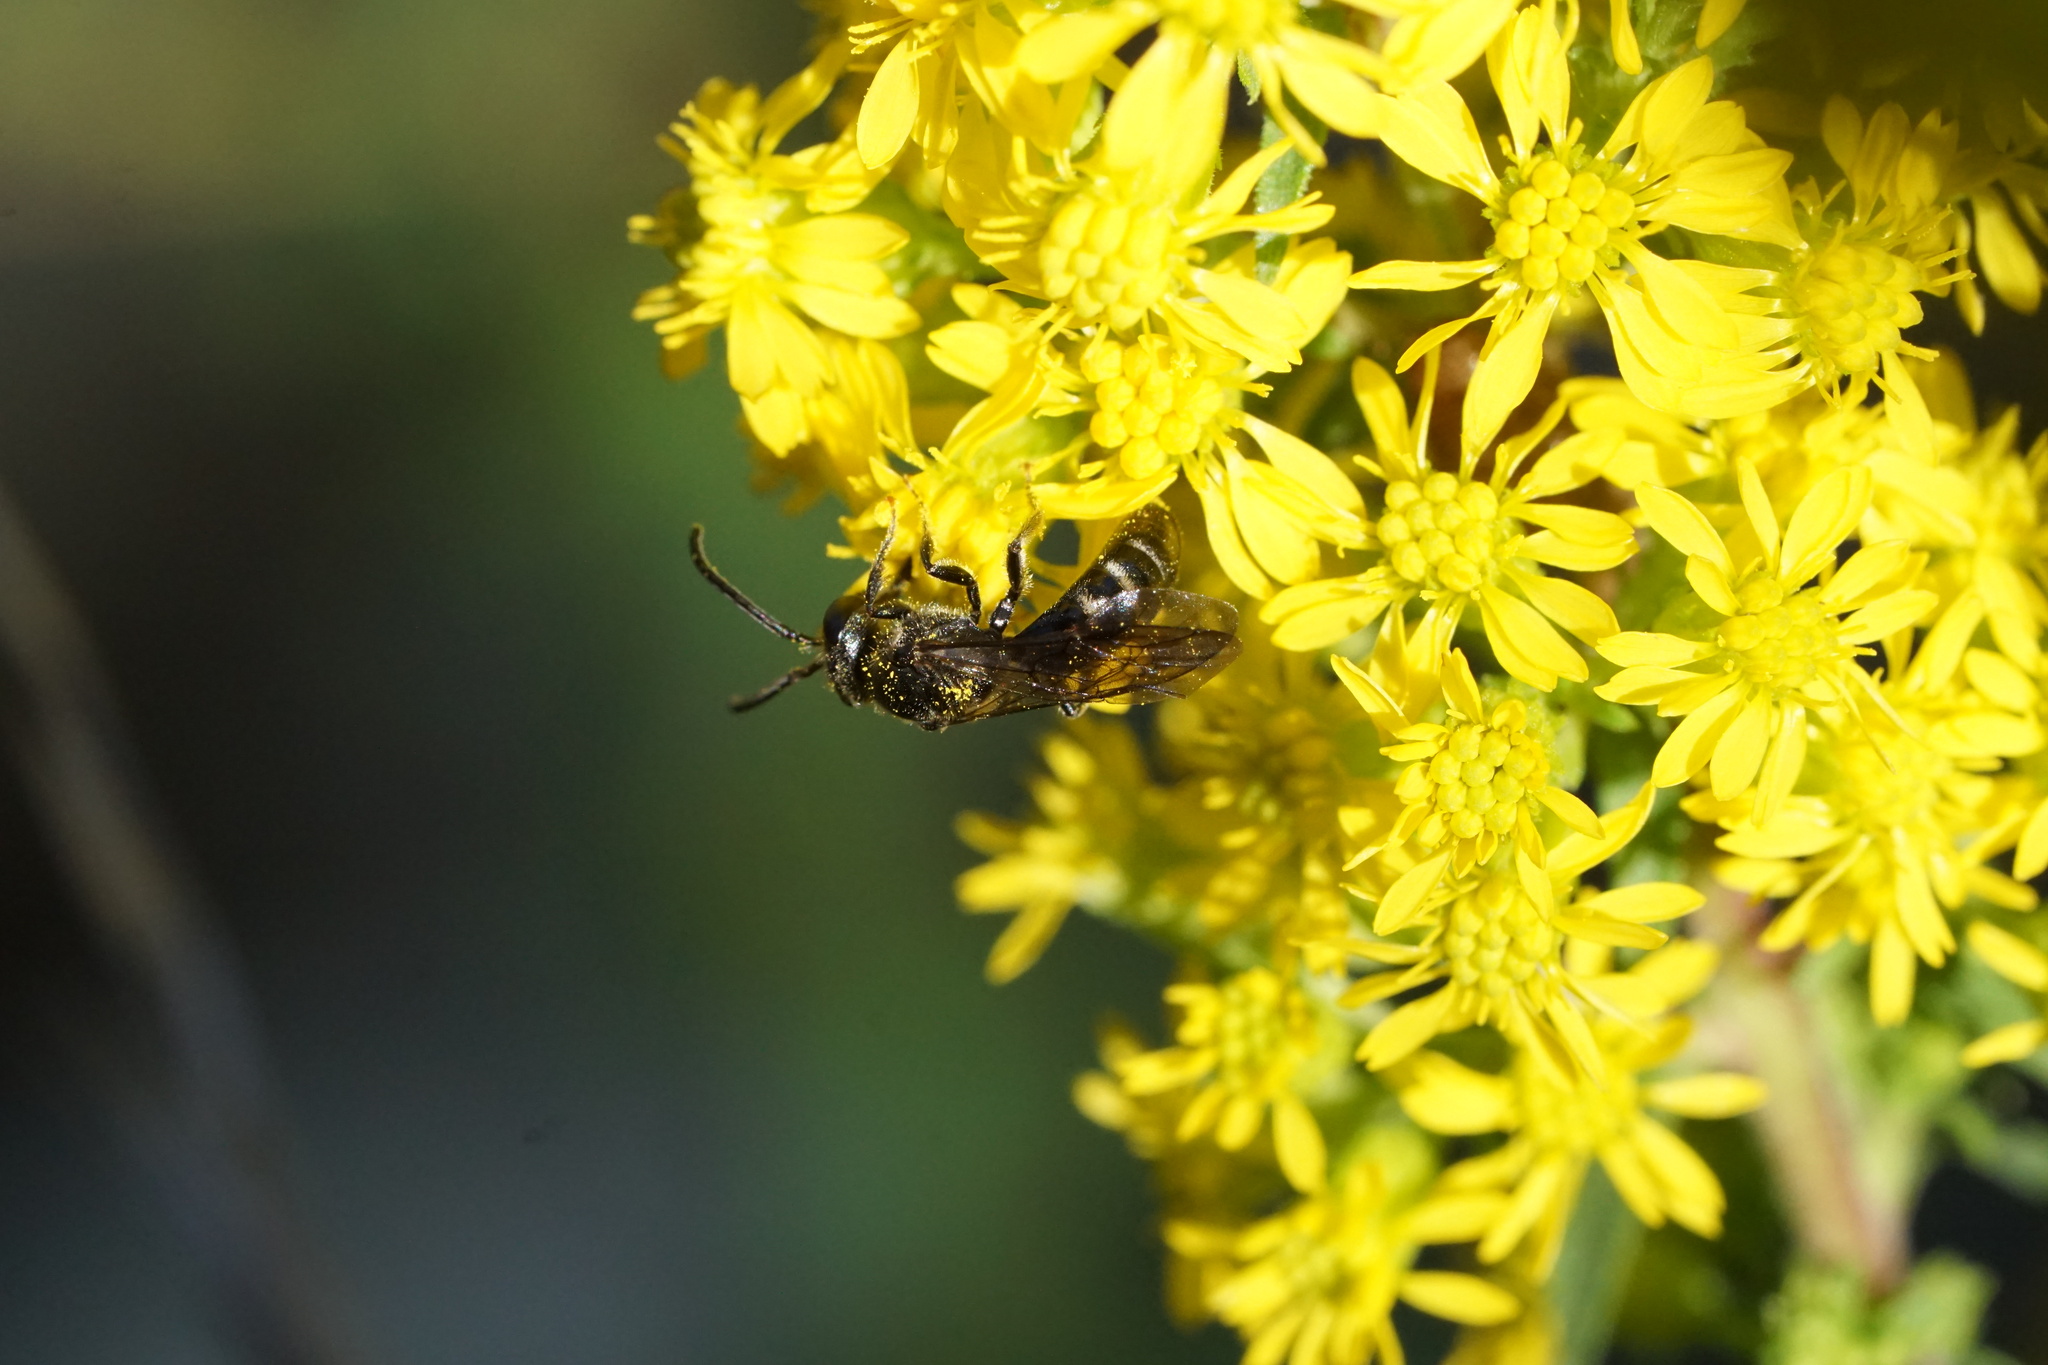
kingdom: Animalia
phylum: Arthropoda
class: Insecta
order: Hymenoptera
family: Halictidae
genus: Lasioglossum
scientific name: Lasioglossum fuscipenne
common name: Brown-winged sweat bee
